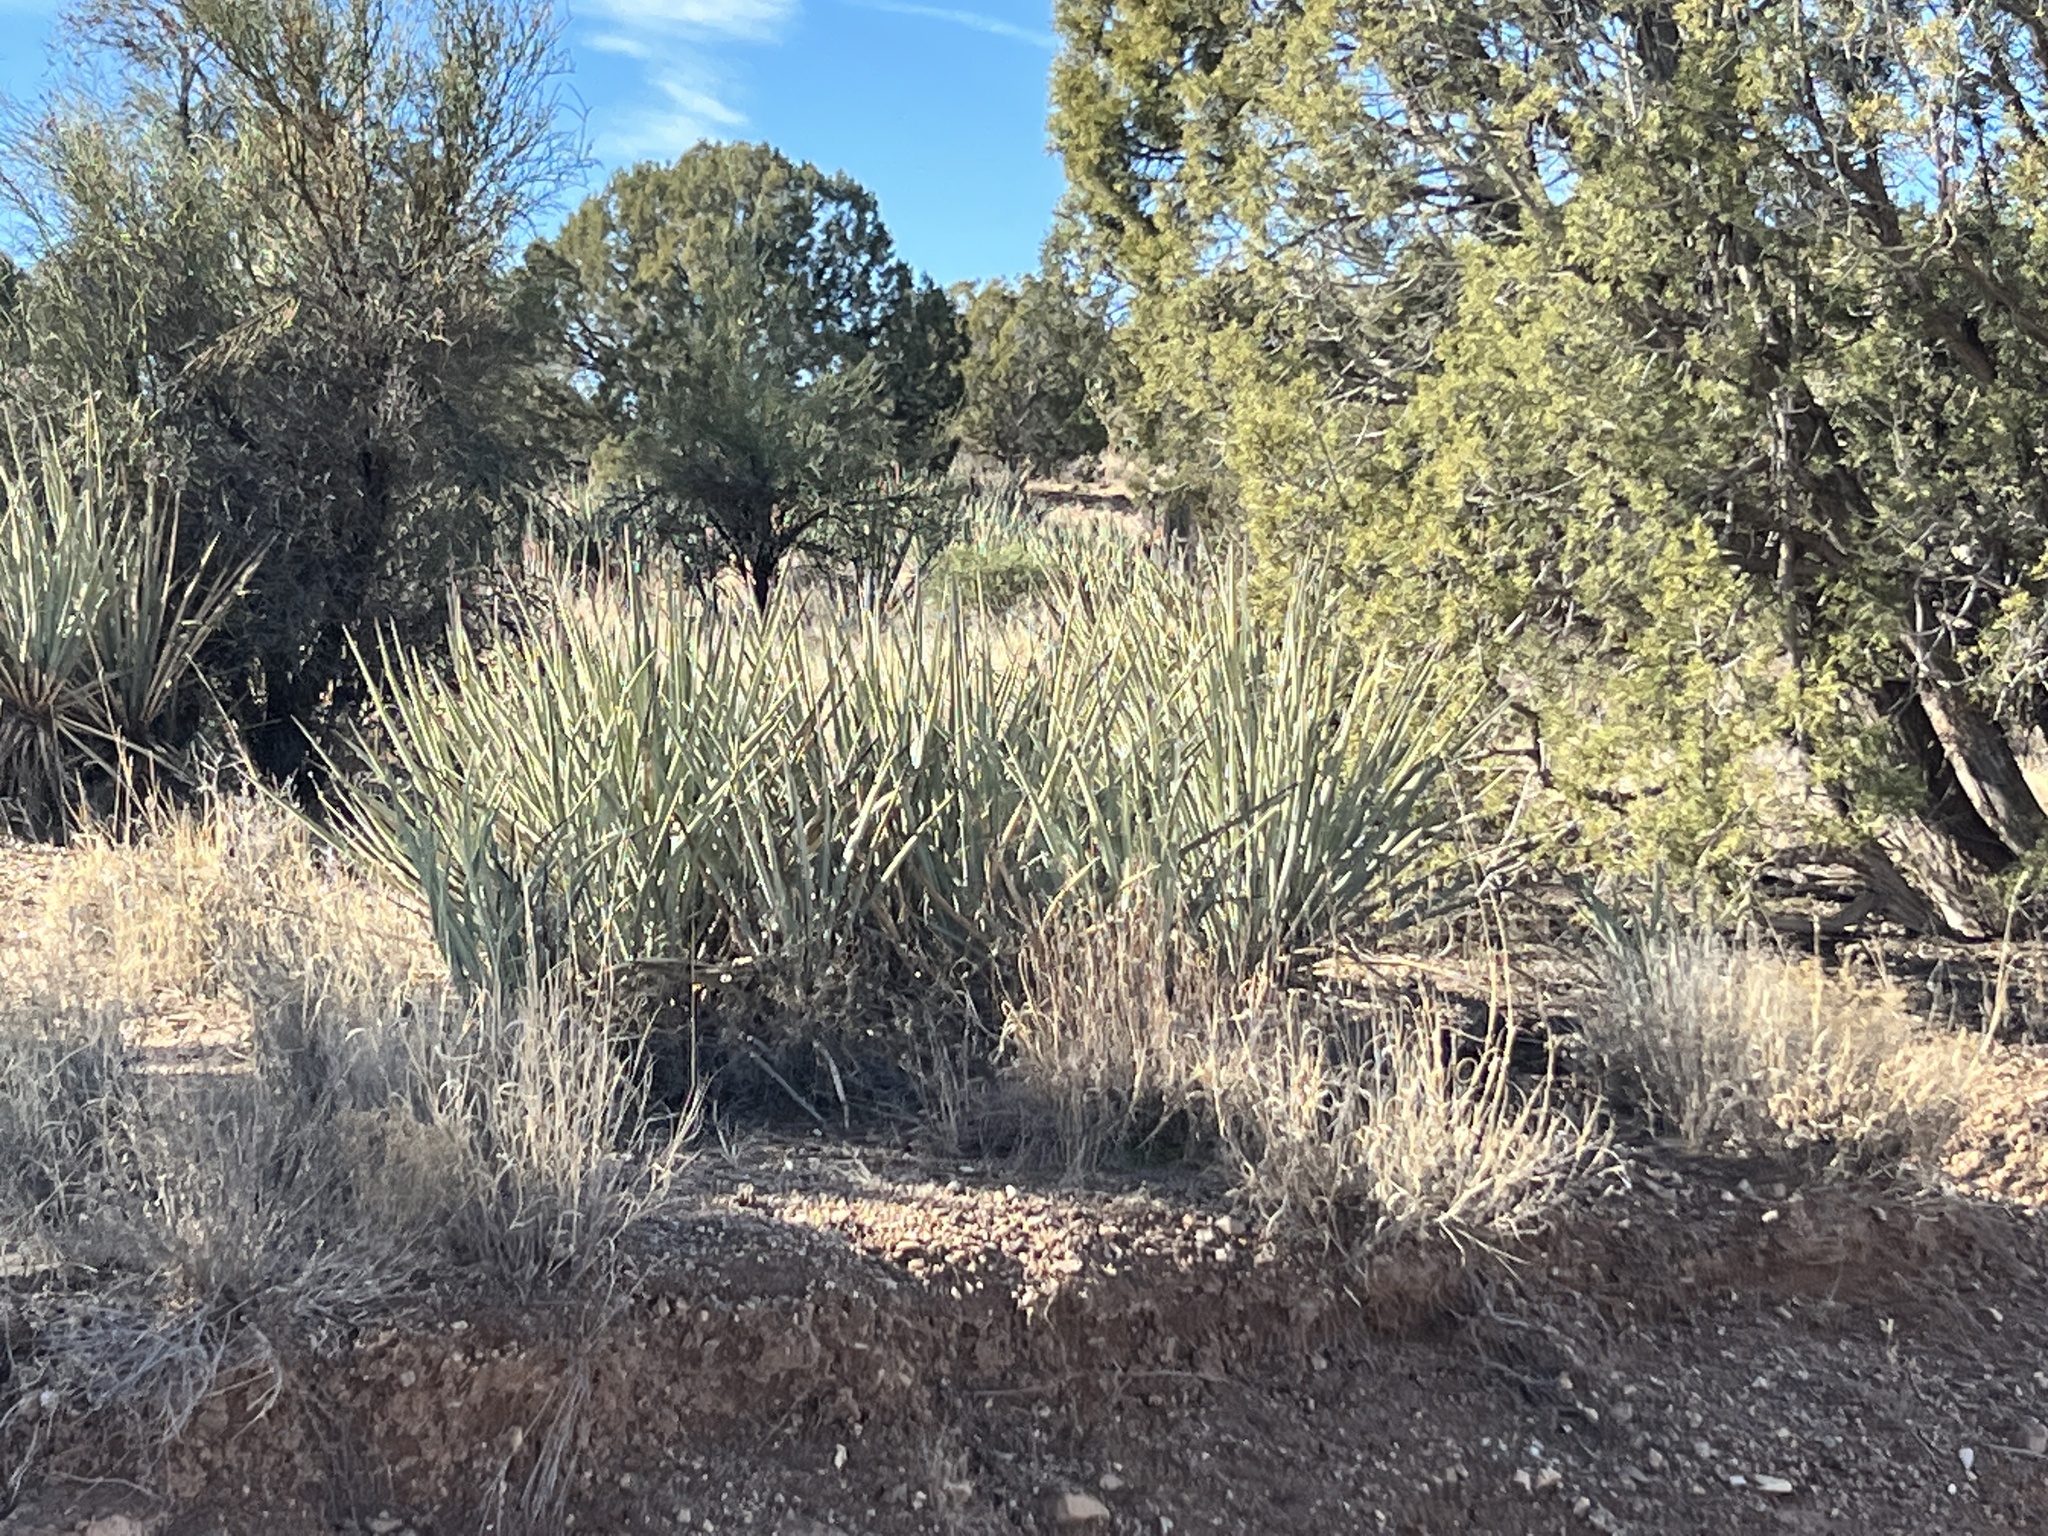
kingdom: Plantae
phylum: Tracheophyta
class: Liliopsida
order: Asparagales
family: Asparagaceae
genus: Yucca
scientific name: Yucca baccata
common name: Banana yucca
